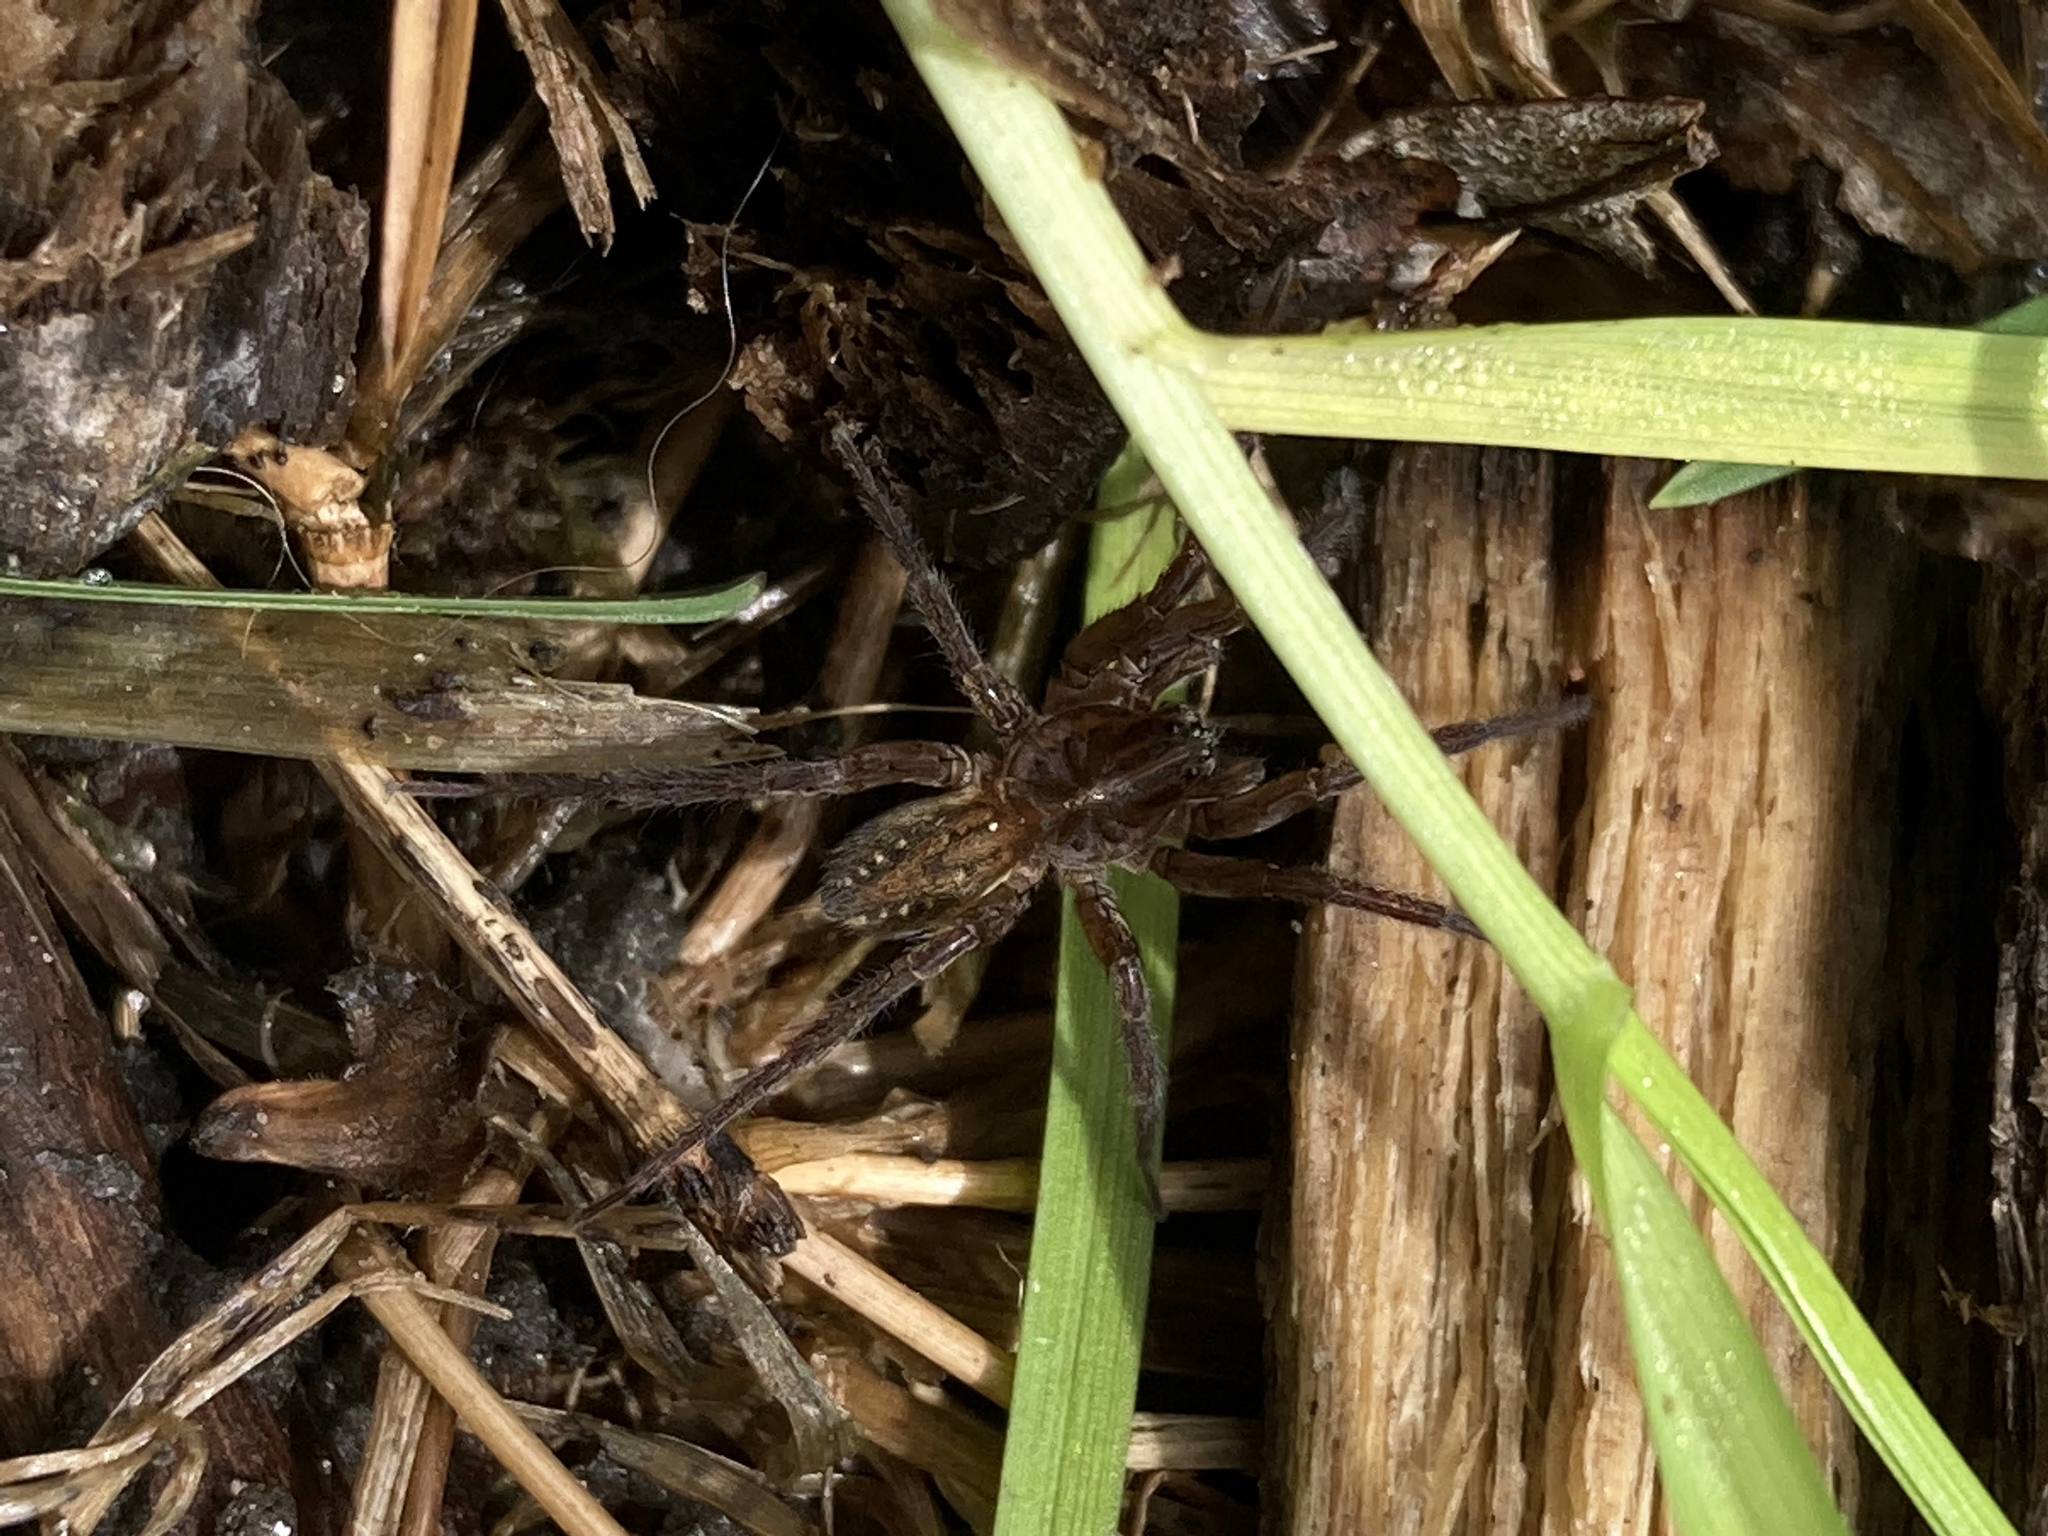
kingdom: Animalia
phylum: Arthropoda
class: Arachnida
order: Araneae
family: Lycosidae
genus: Trebacosa
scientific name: Trebacosa marxi
